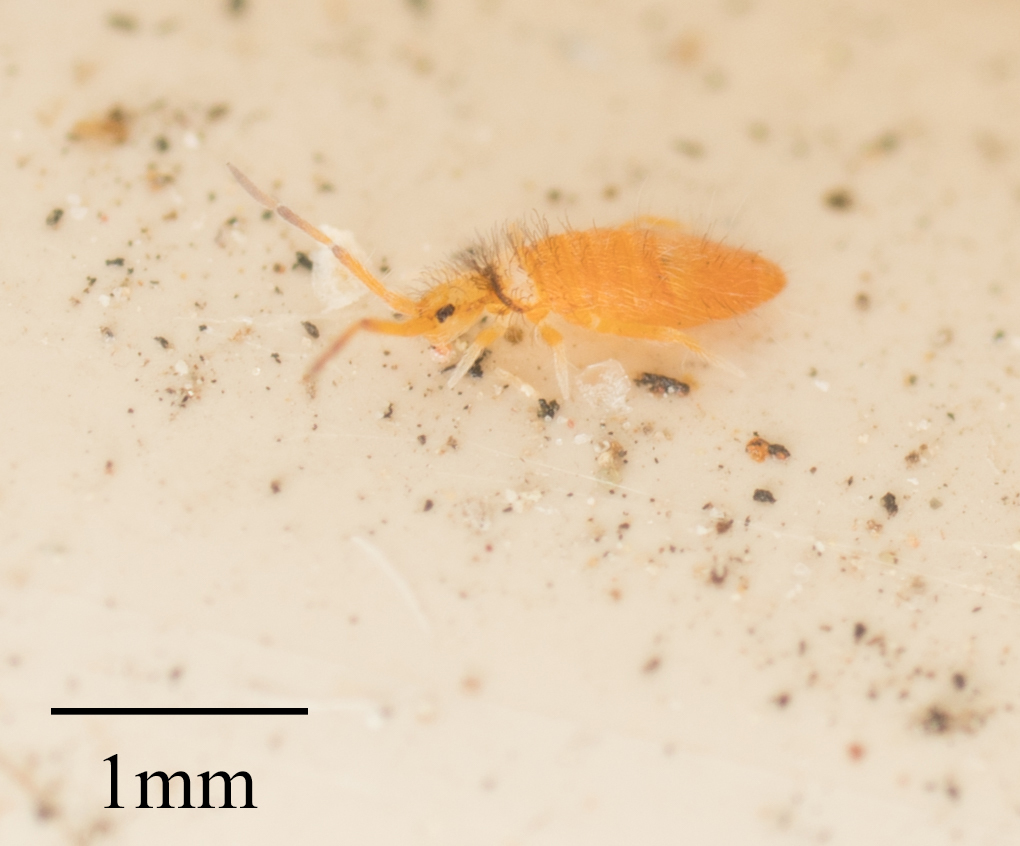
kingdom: Animalia
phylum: Arthropoda
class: Collembola
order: Entomobryomorpha
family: Entomobryidae
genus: Entomobrya
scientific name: Entomobrya atrocincta
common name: Springtail
